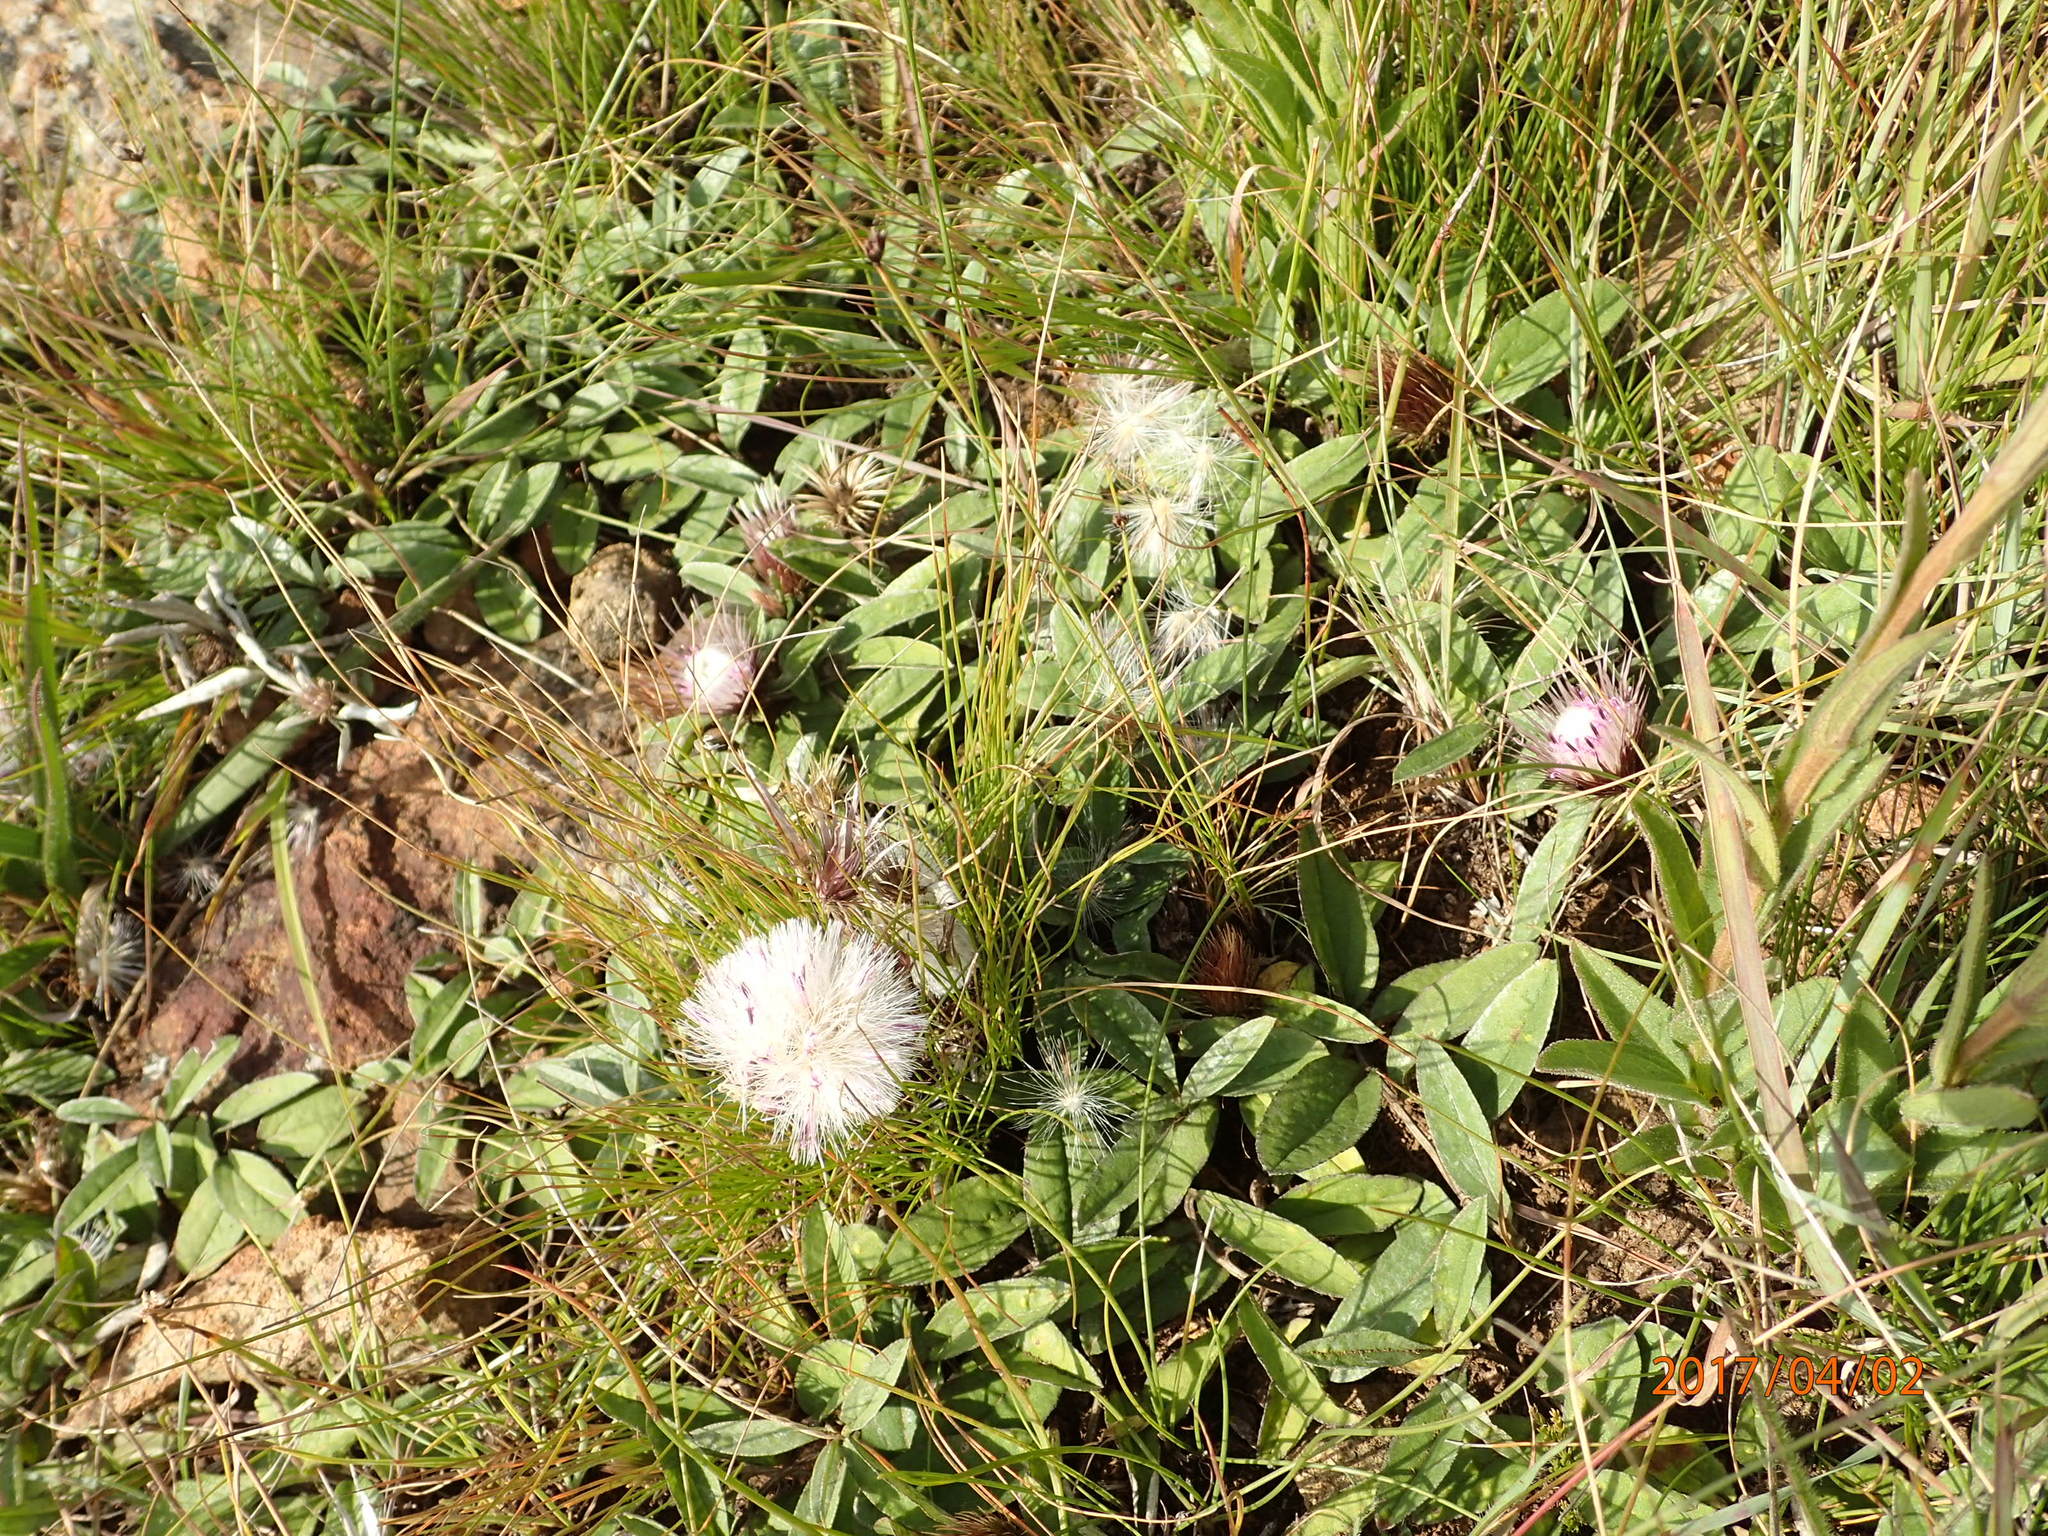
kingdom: Plantae
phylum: Tracheophyta
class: Magnoliopsida
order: Asterales
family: Asteraceae
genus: Dicoma
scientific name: Dicoma anomala
